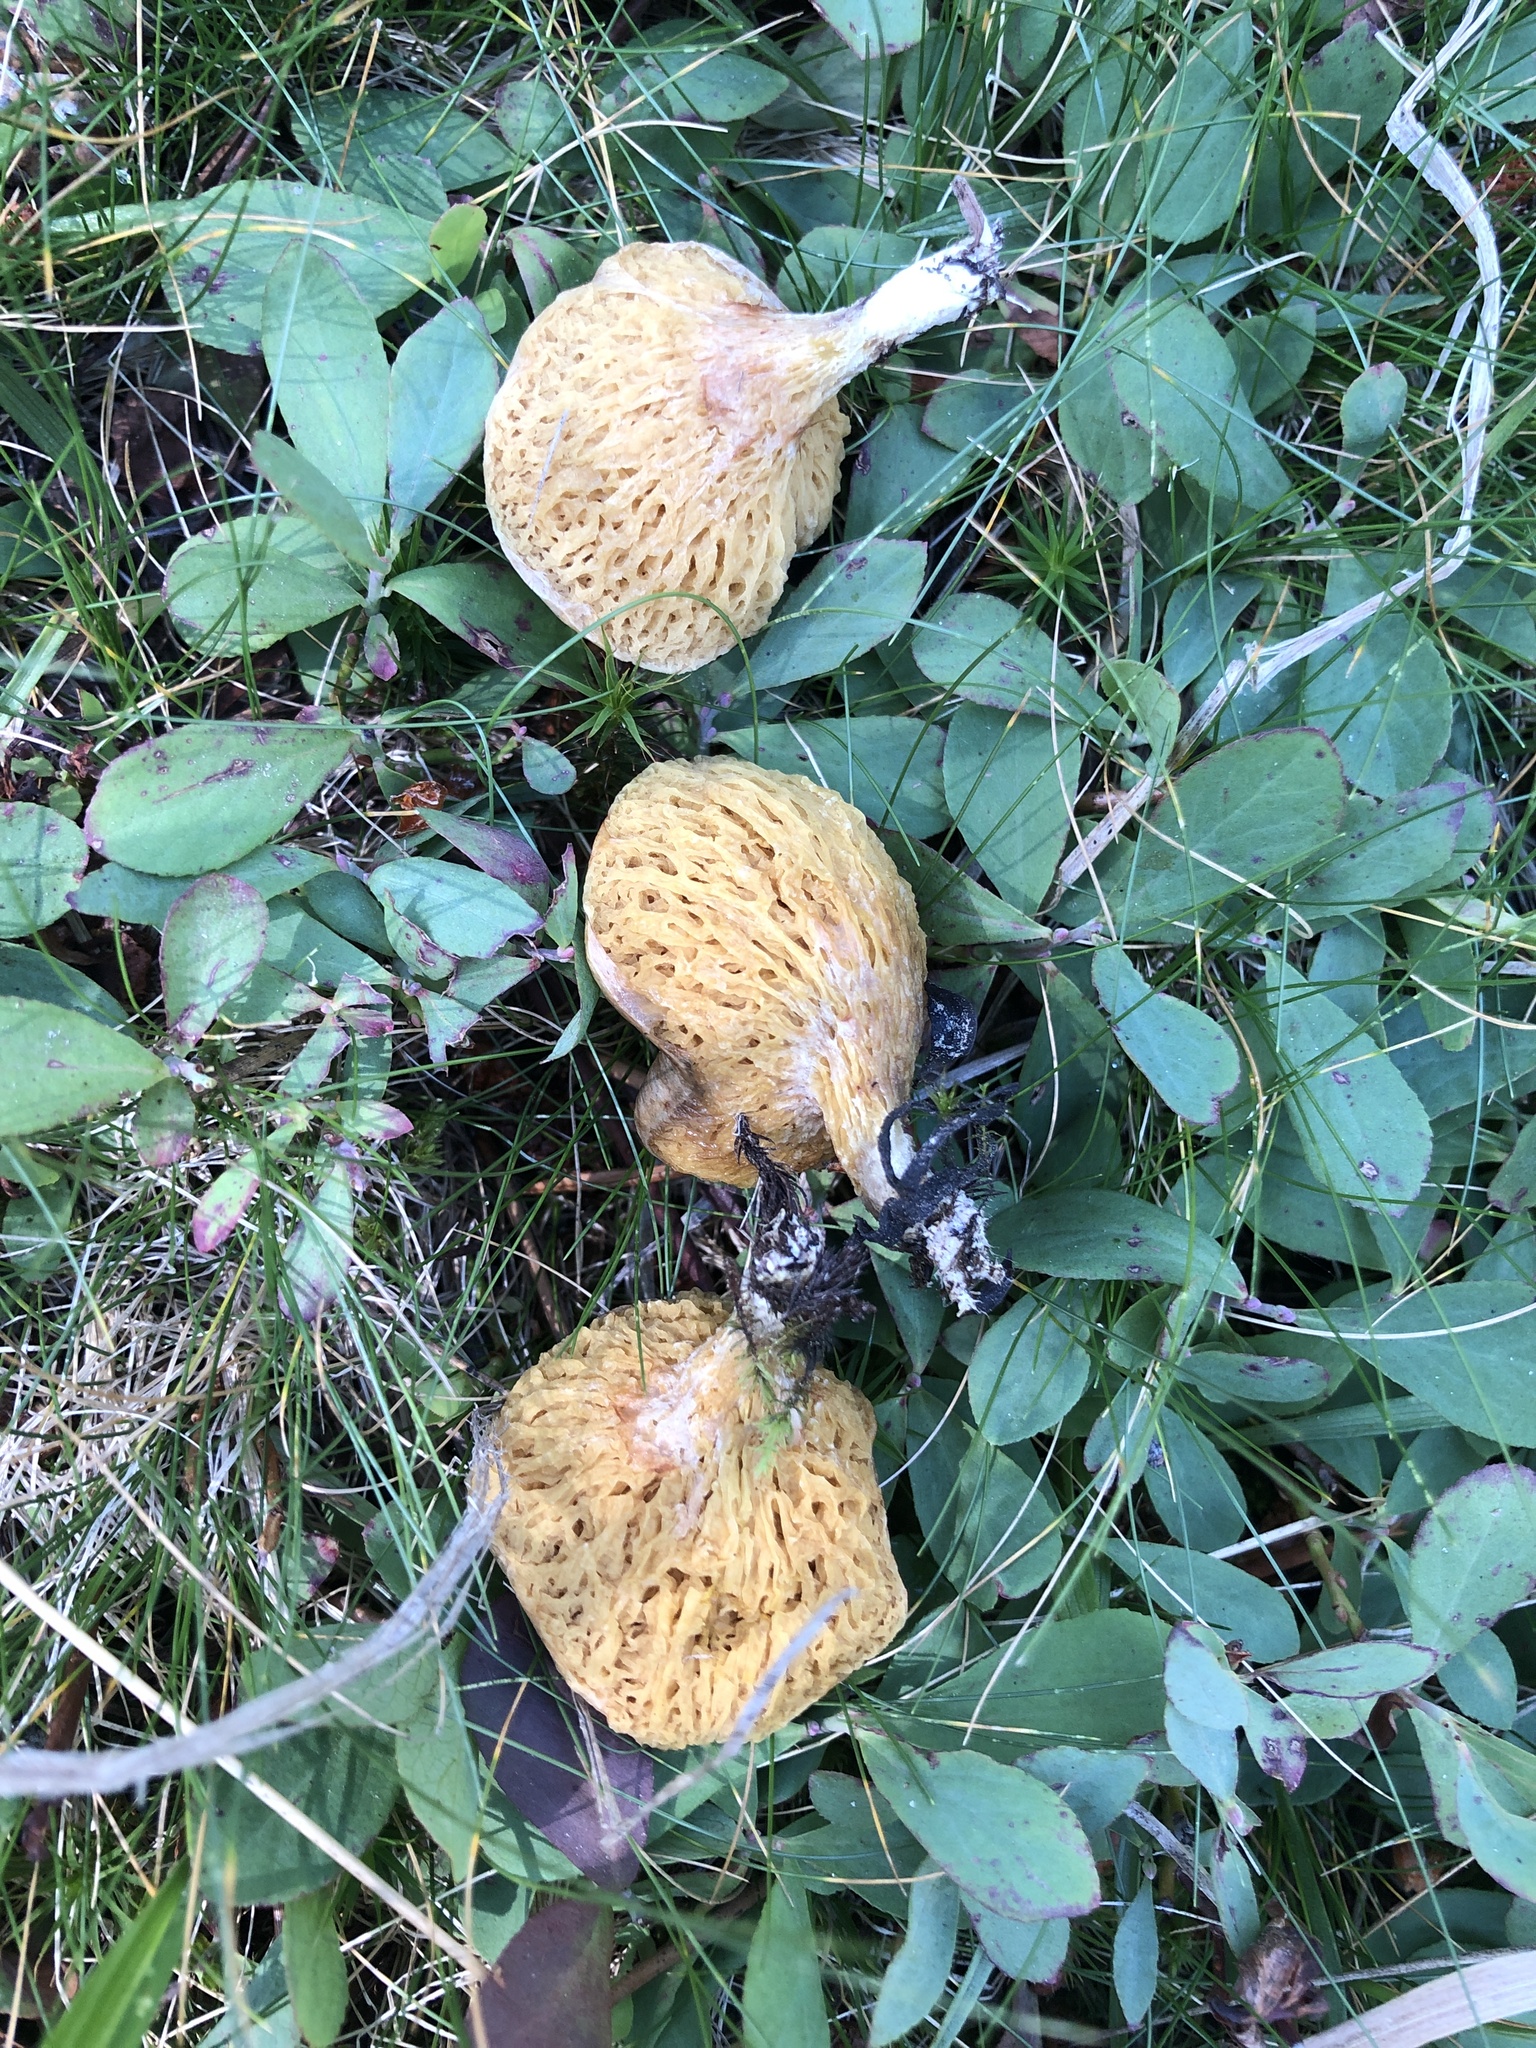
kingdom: Fungi
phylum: Basidiomycota
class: Agaricomycetes
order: Boletales
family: Suillaceae
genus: Suillus
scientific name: Suillus flavidus
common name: Jellied bolete
